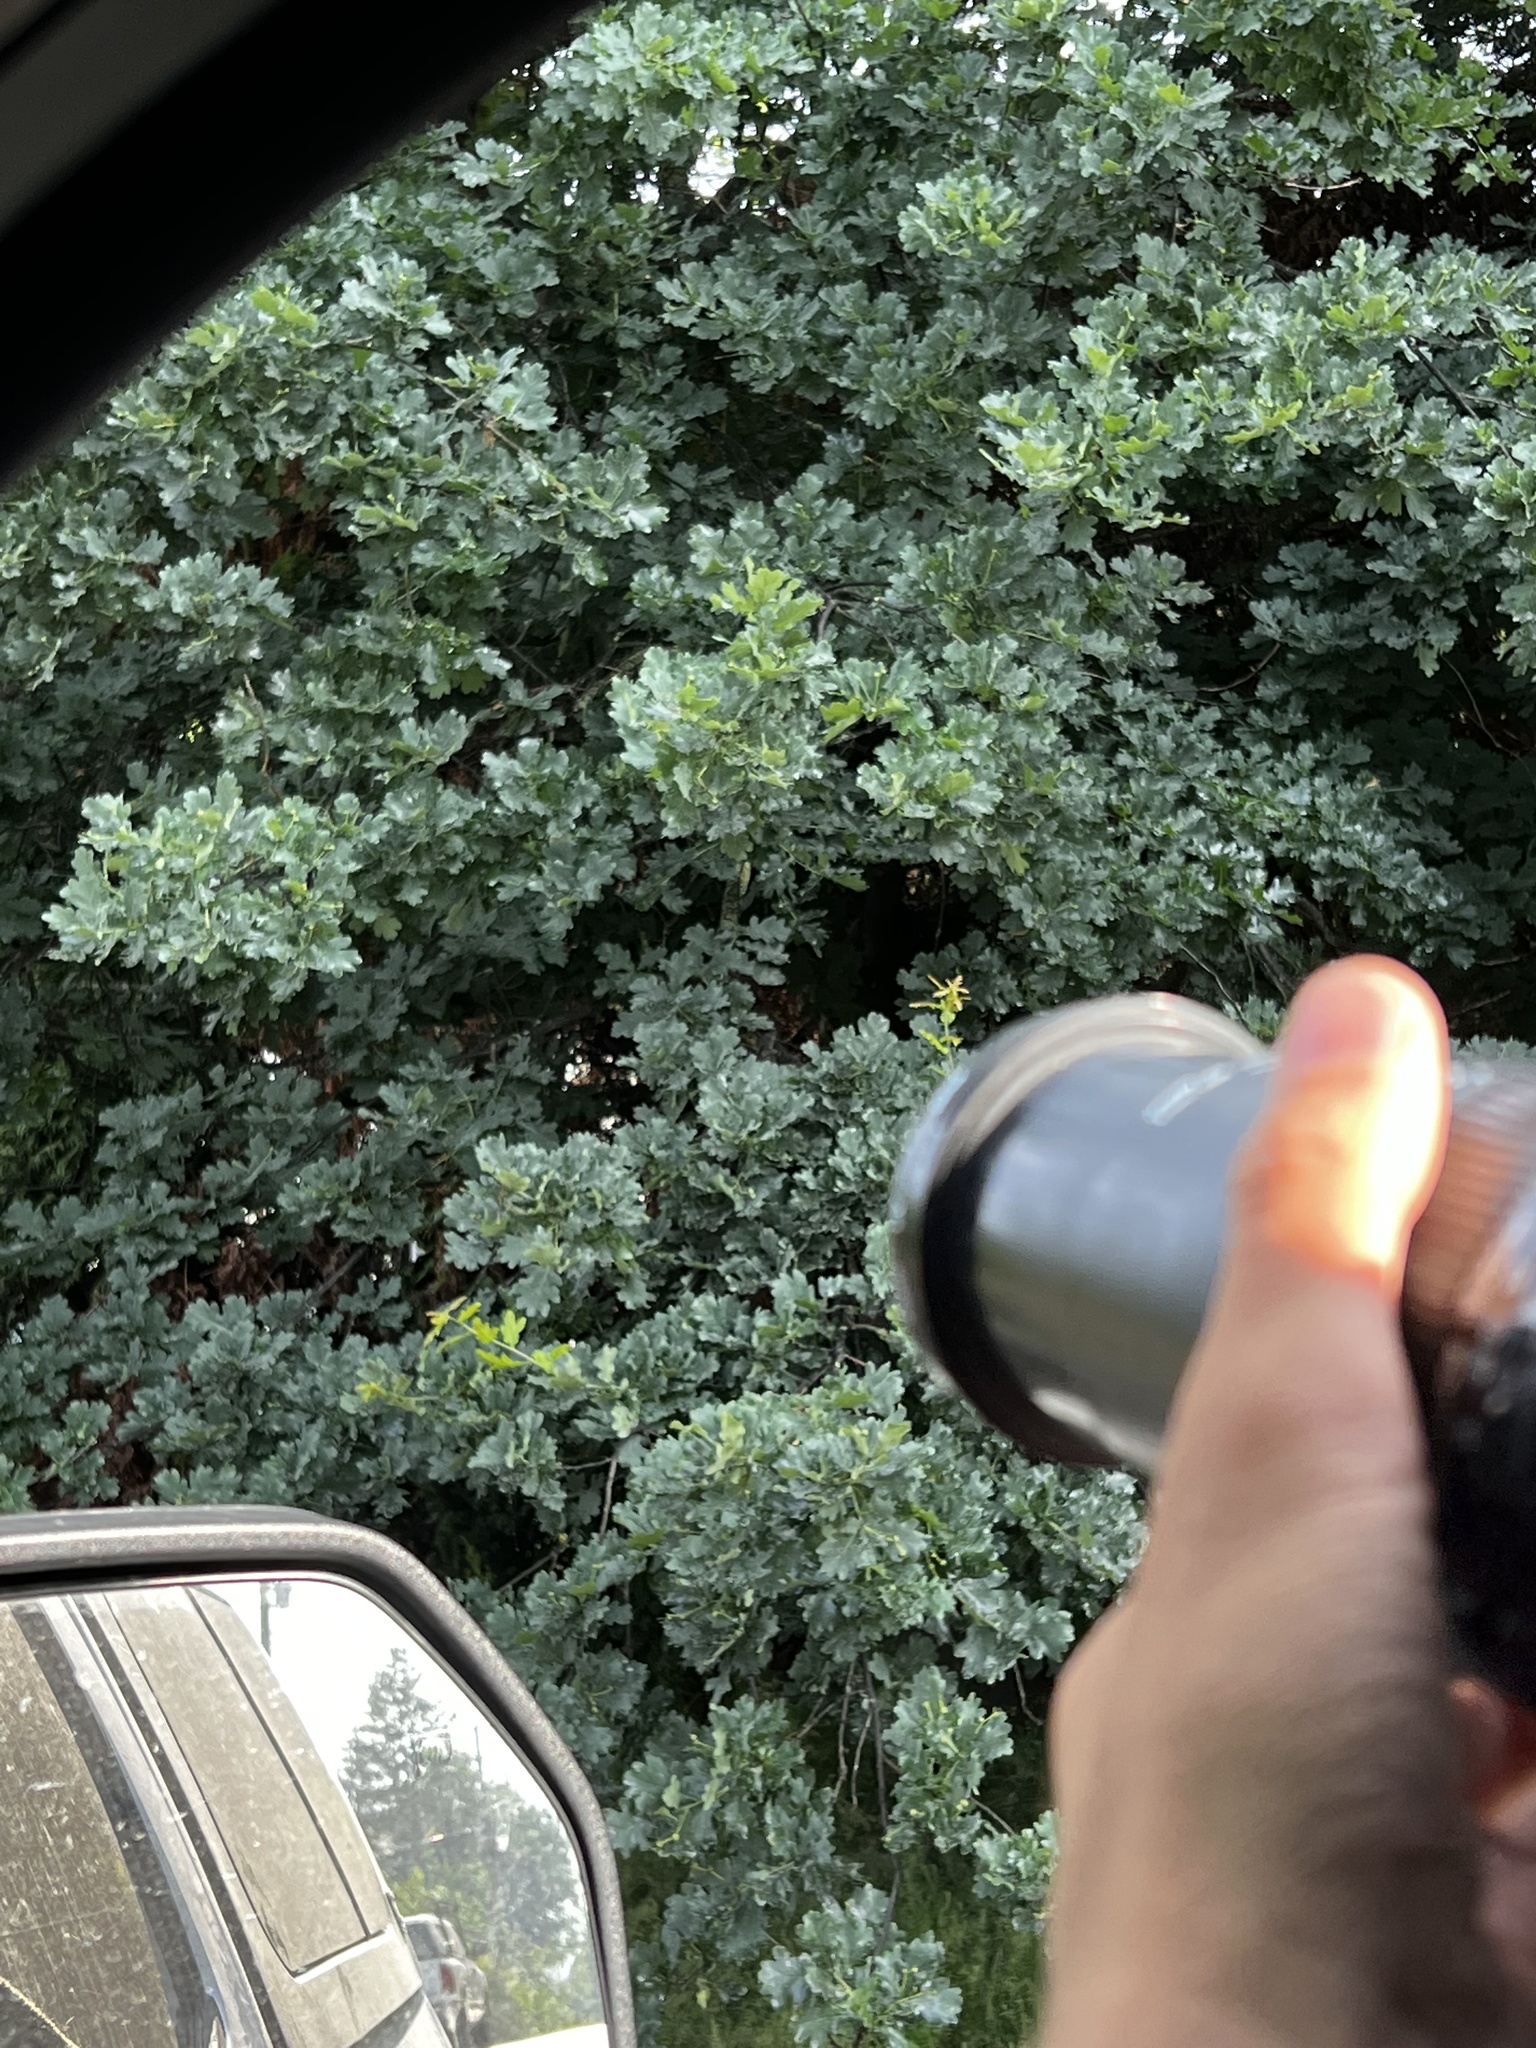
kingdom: Plantae
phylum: Tracheophyta
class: Magnoliopsida
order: Fagales
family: Fagaceae
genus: Quercus
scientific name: Quercus robur
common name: Pedunculate oak
